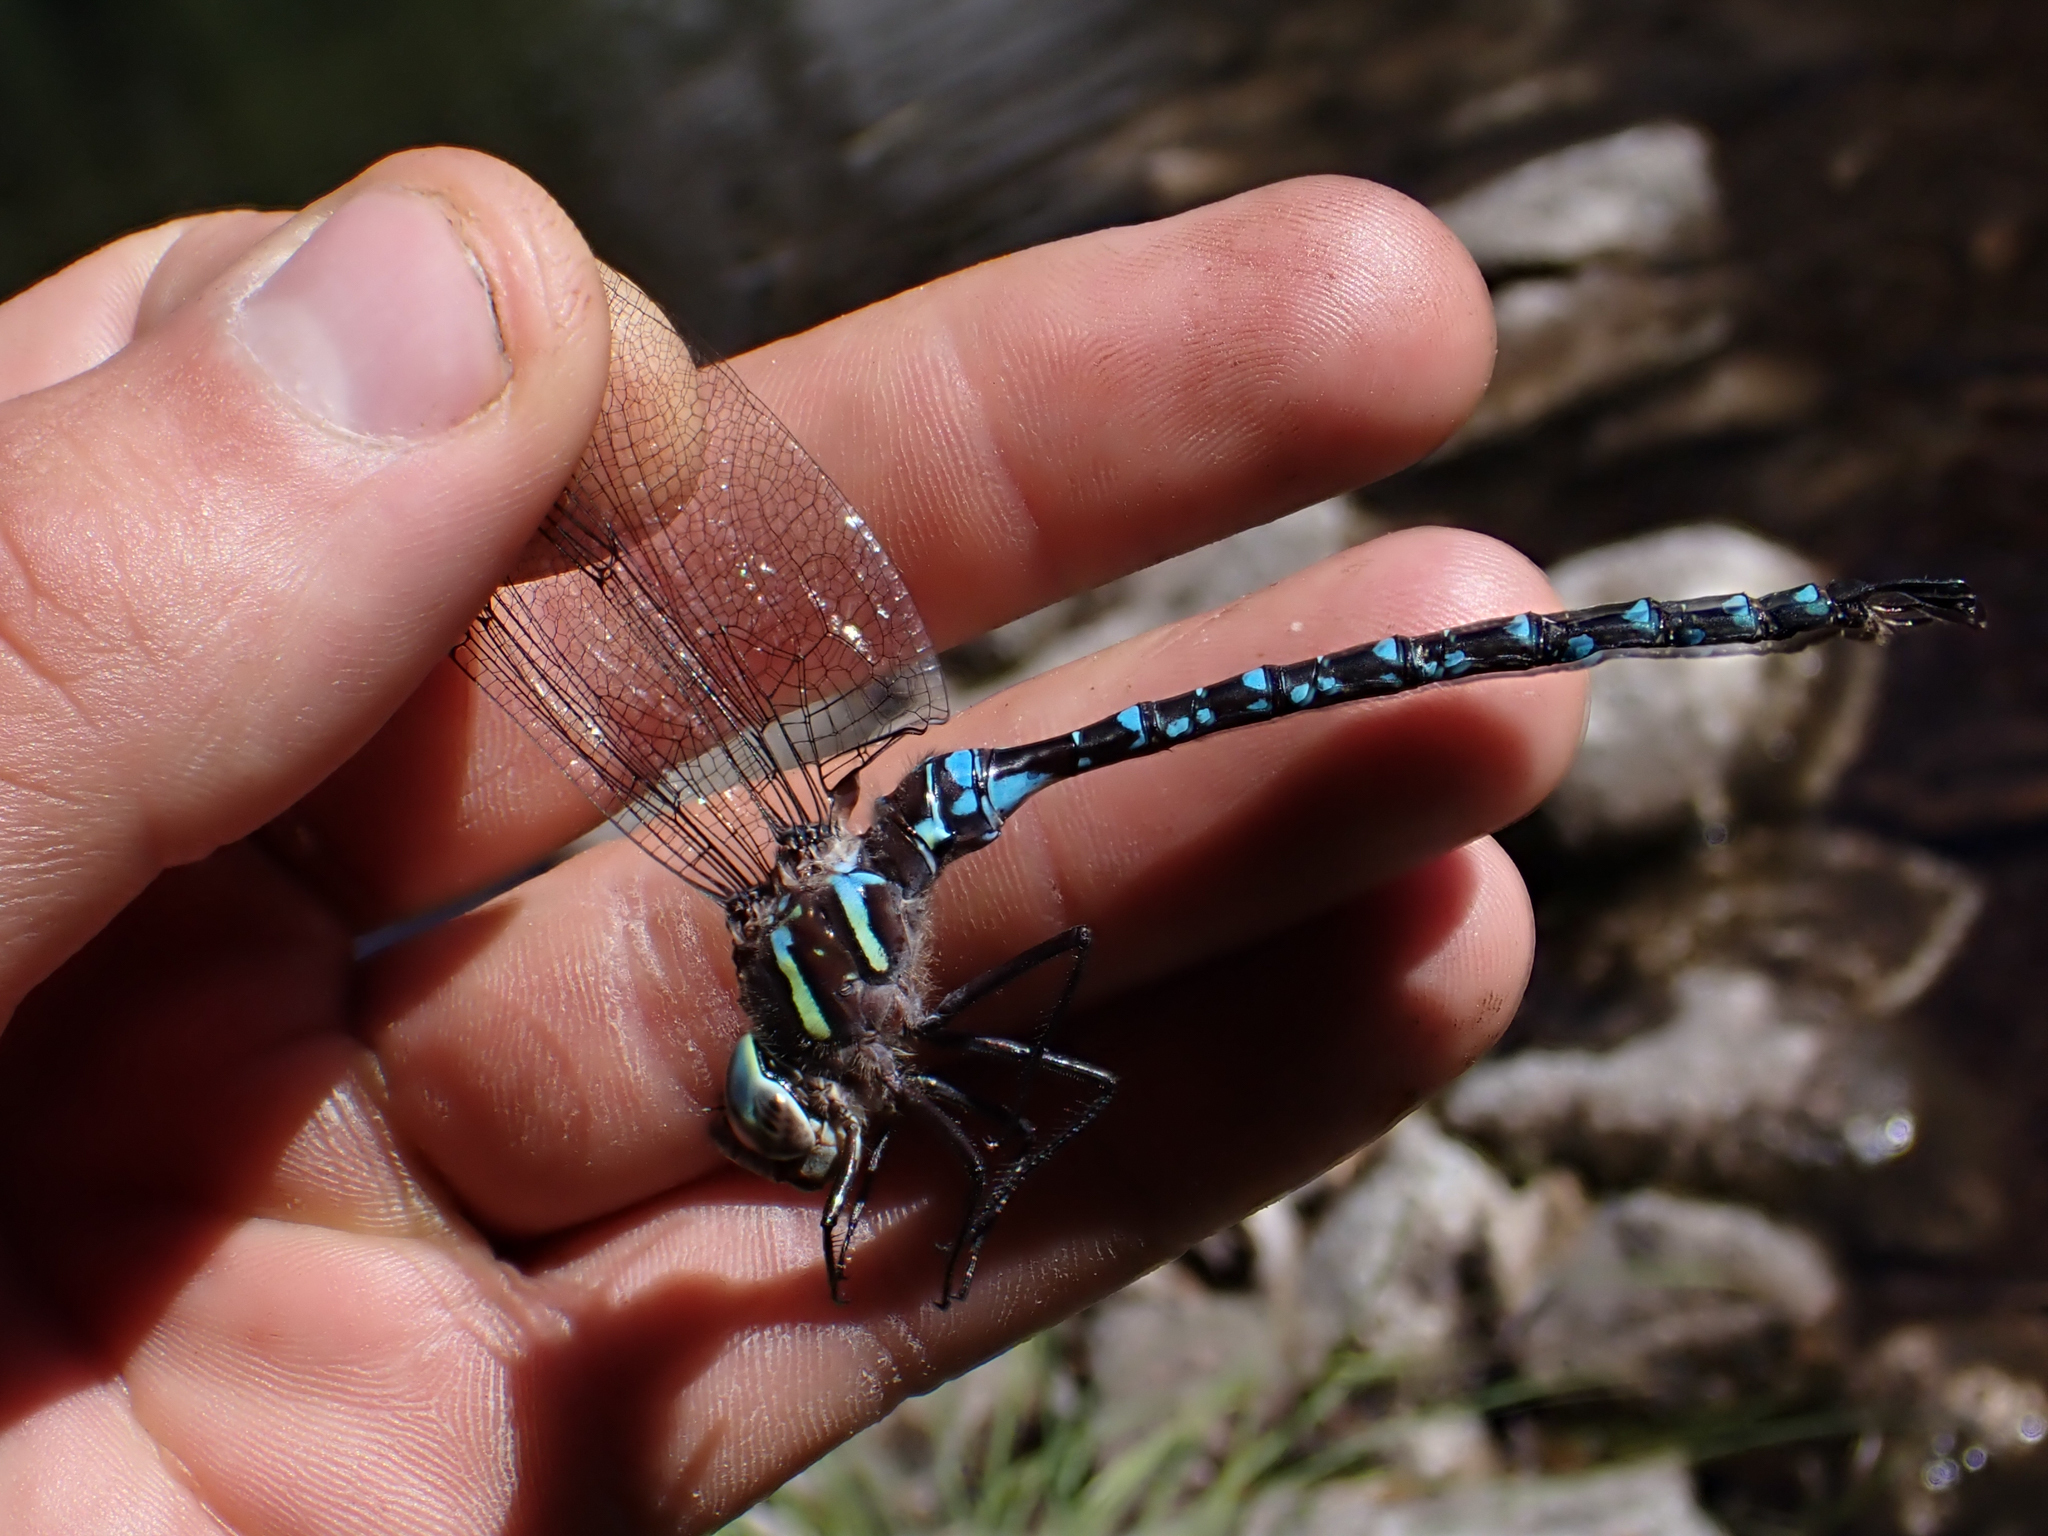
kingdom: Animalia
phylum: Arthropoda
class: Insecta
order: Odonata
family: Aeshnidae
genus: Aeshna
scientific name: Aeshna umbrosa
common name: Shadow darner
